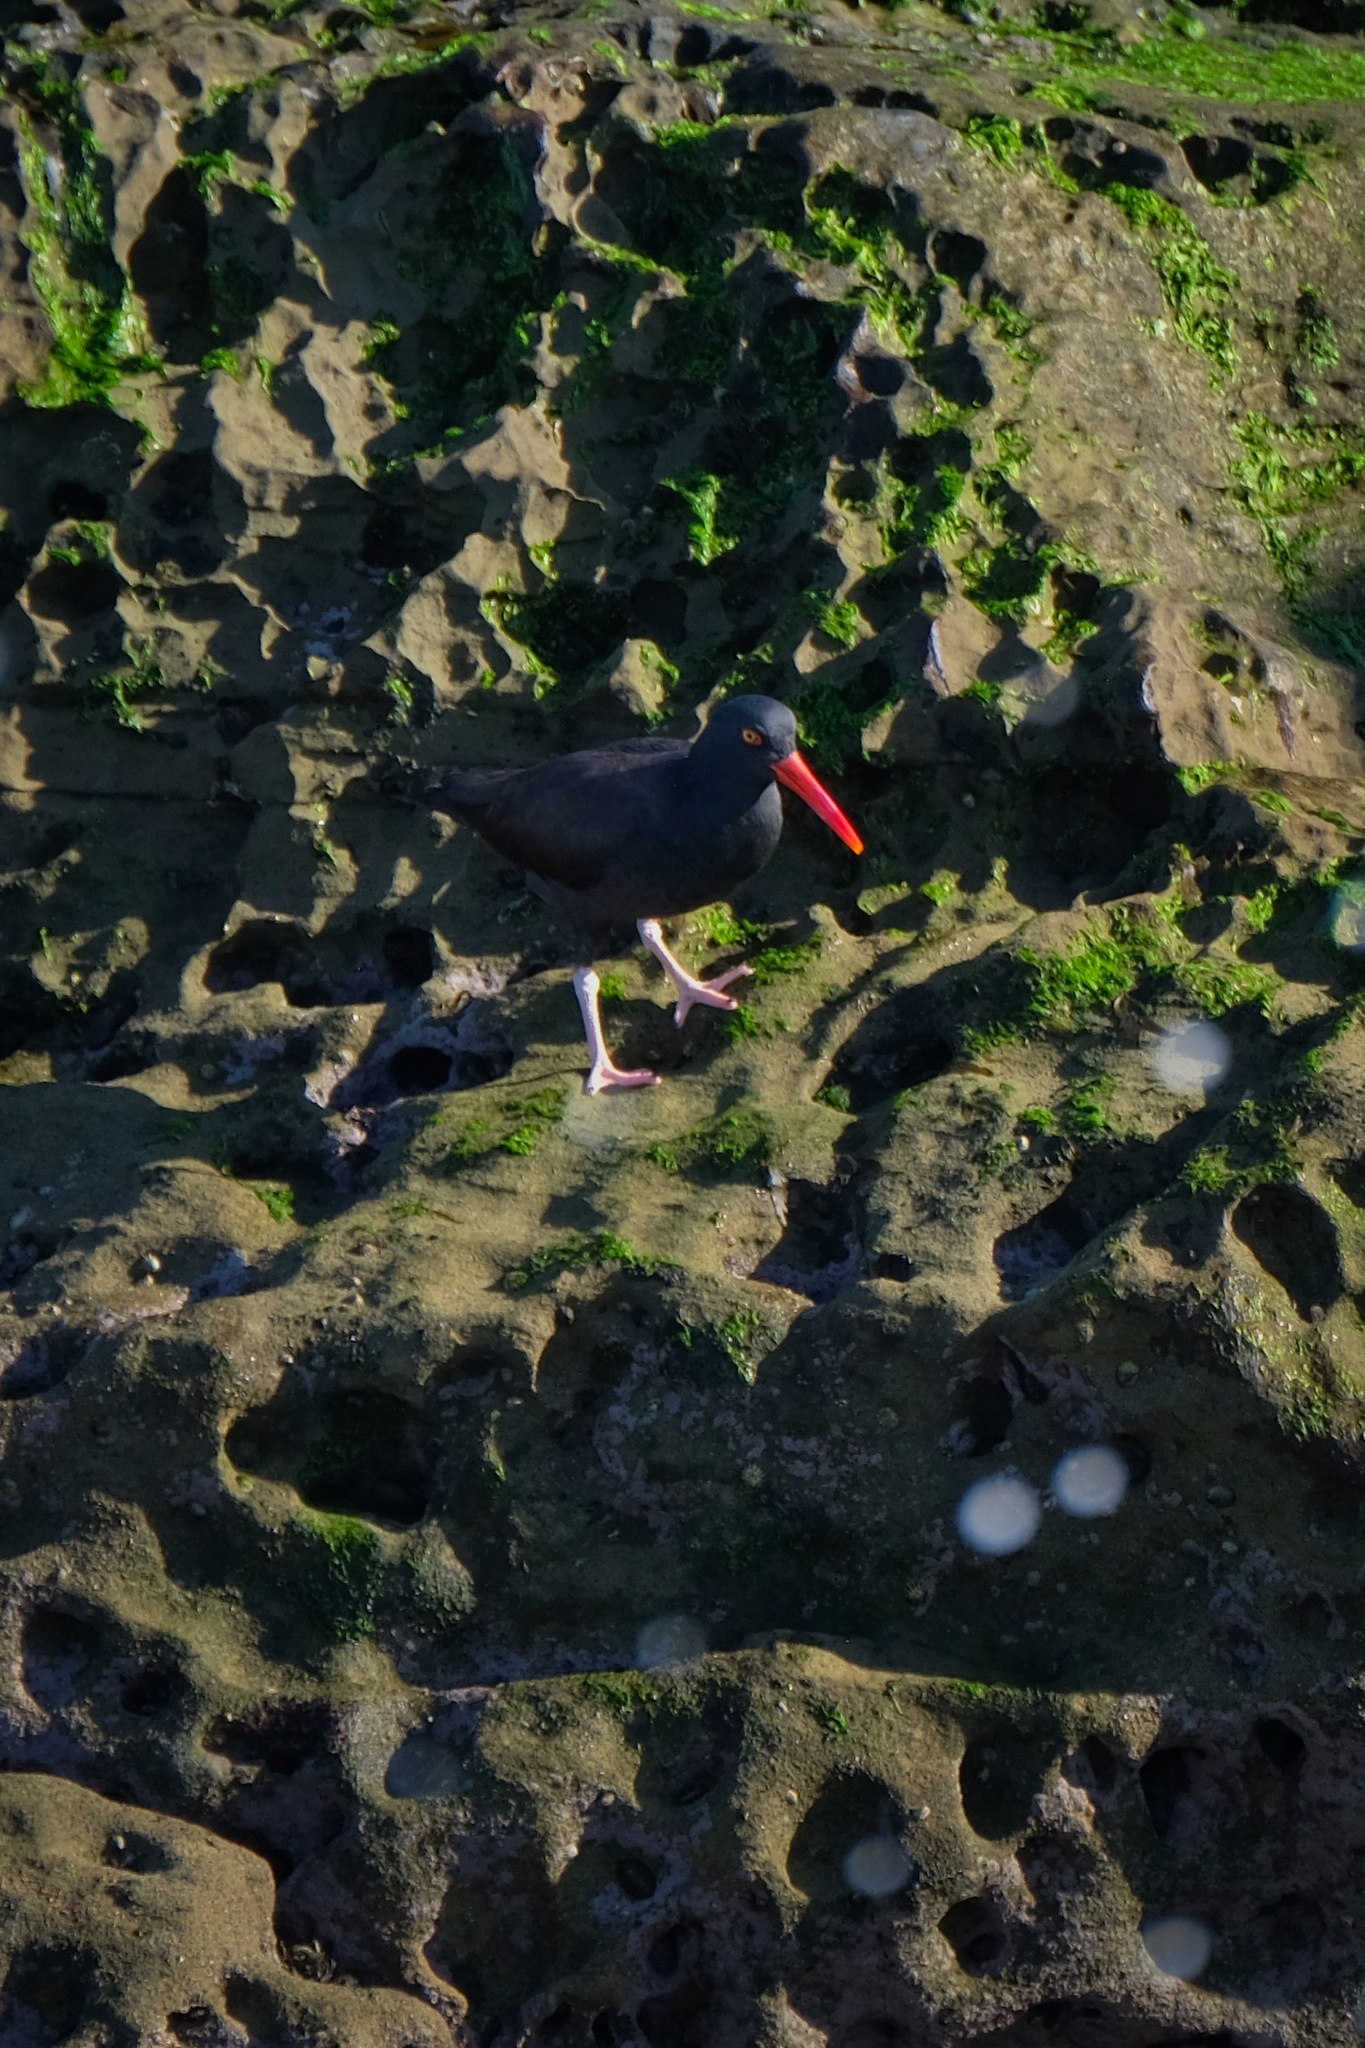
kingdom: Animalia
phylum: Chordata
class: Aves
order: Charadriiformes
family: Haematopodidae
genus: Haematopus
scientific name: Haematopus bachmani
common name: Black oystercatcher
